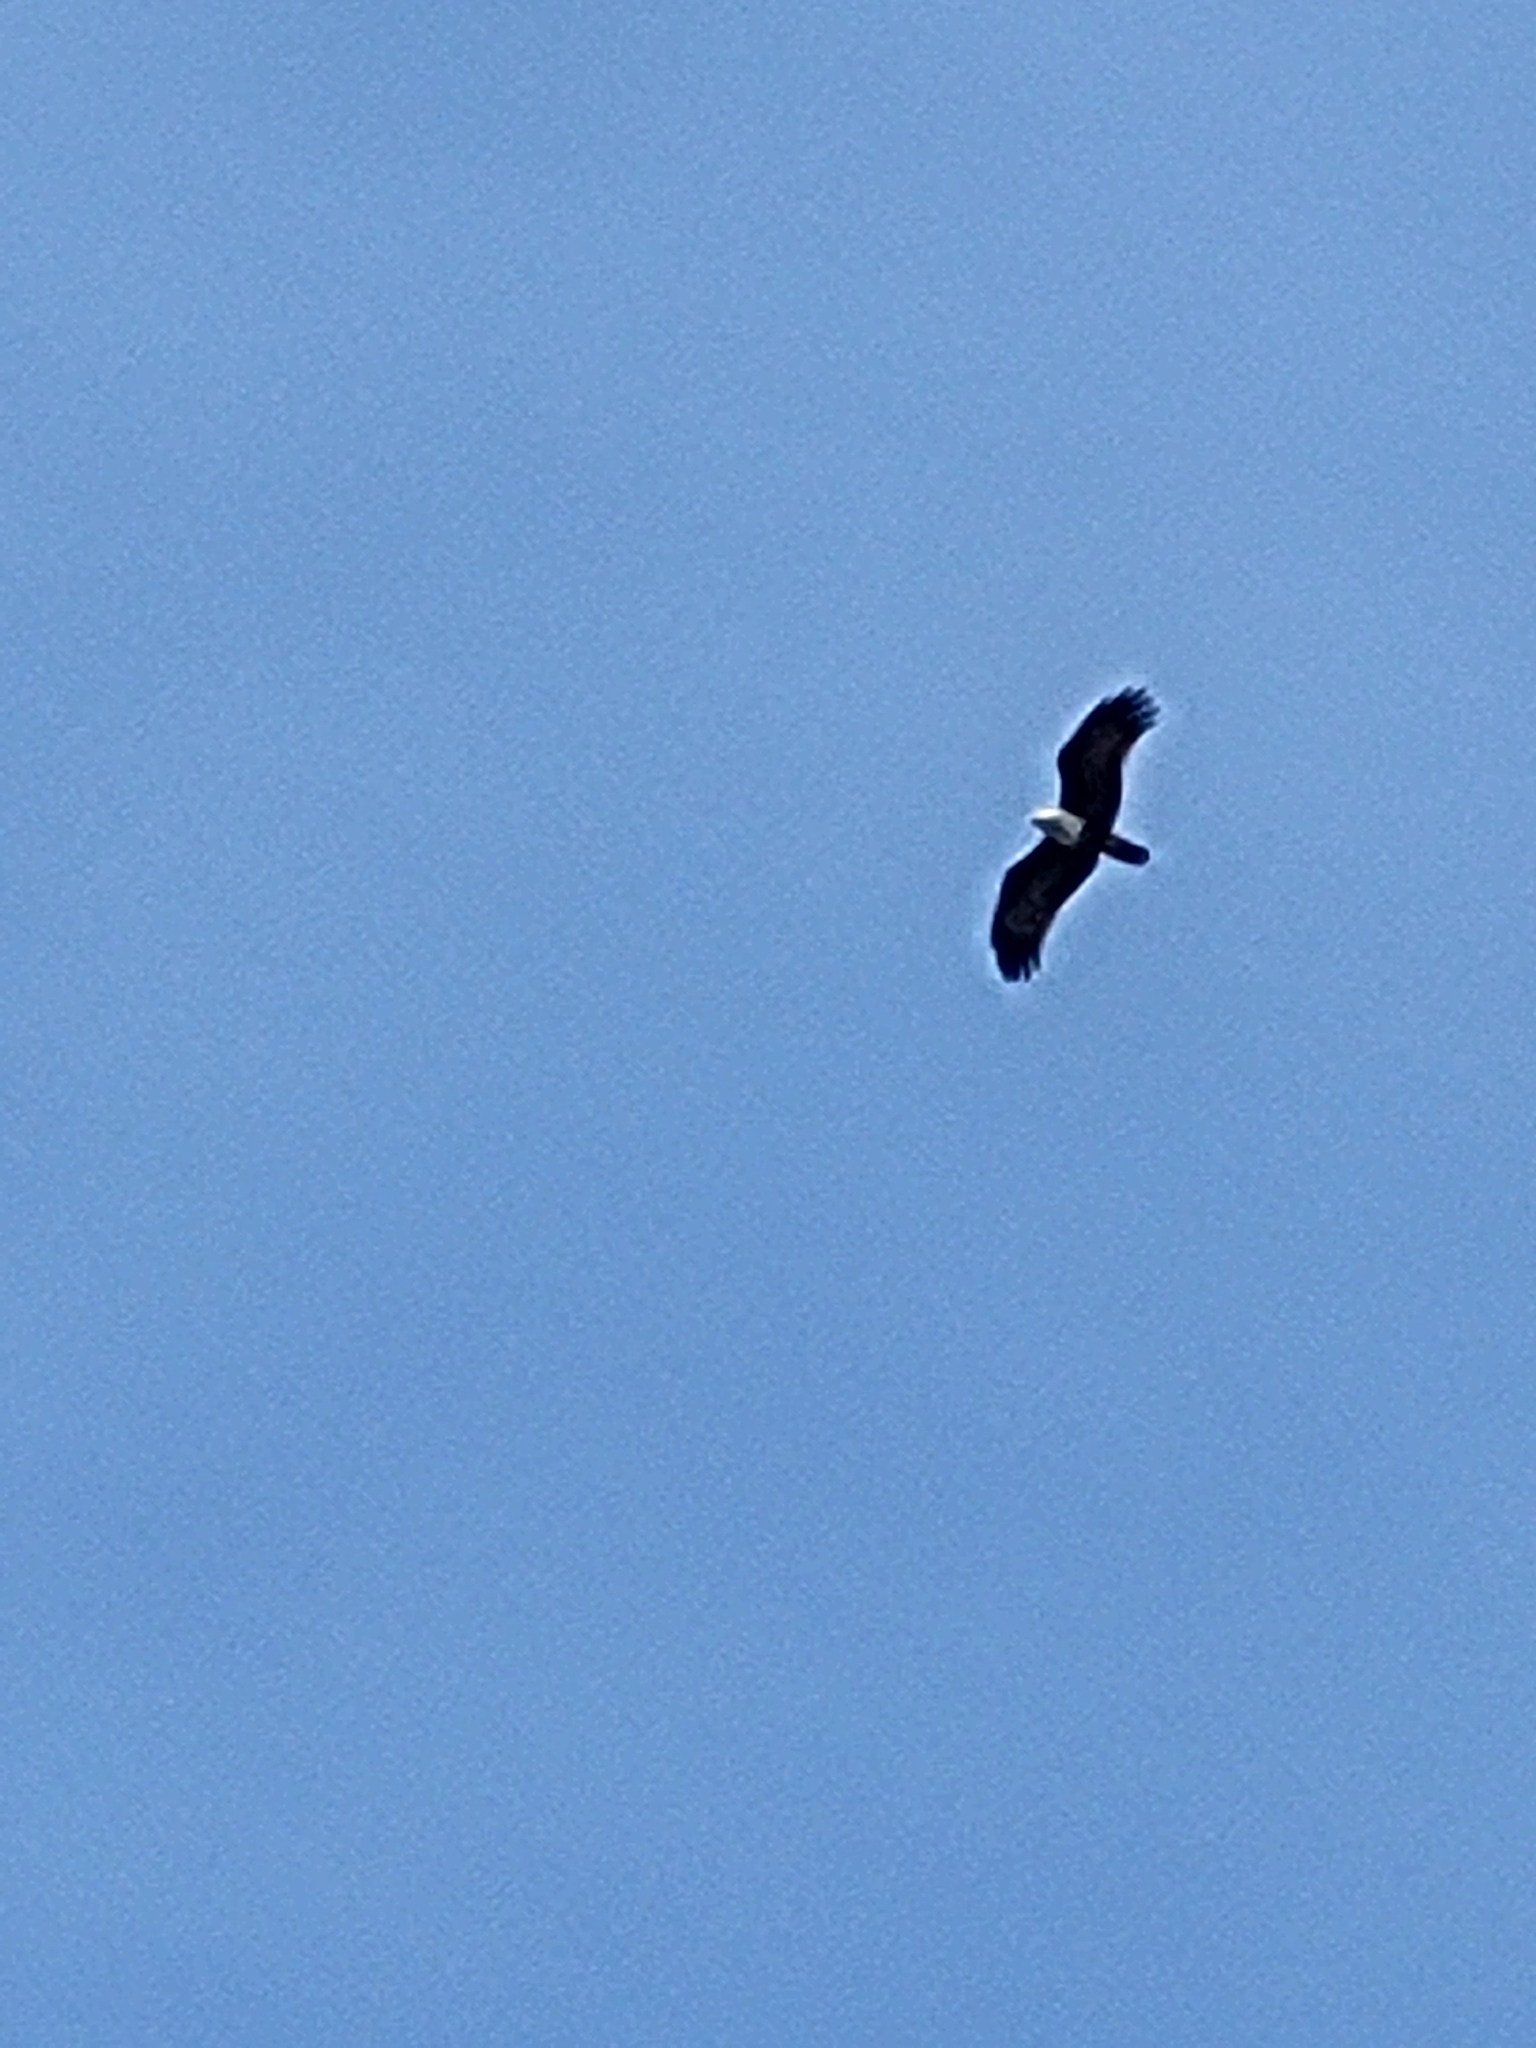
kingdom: Animalia
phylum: Chordata
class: Aves
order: Accipitriformes
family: Accipitridae
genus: Haliastur
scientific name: Haliastur indus
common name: Brahminy kite
